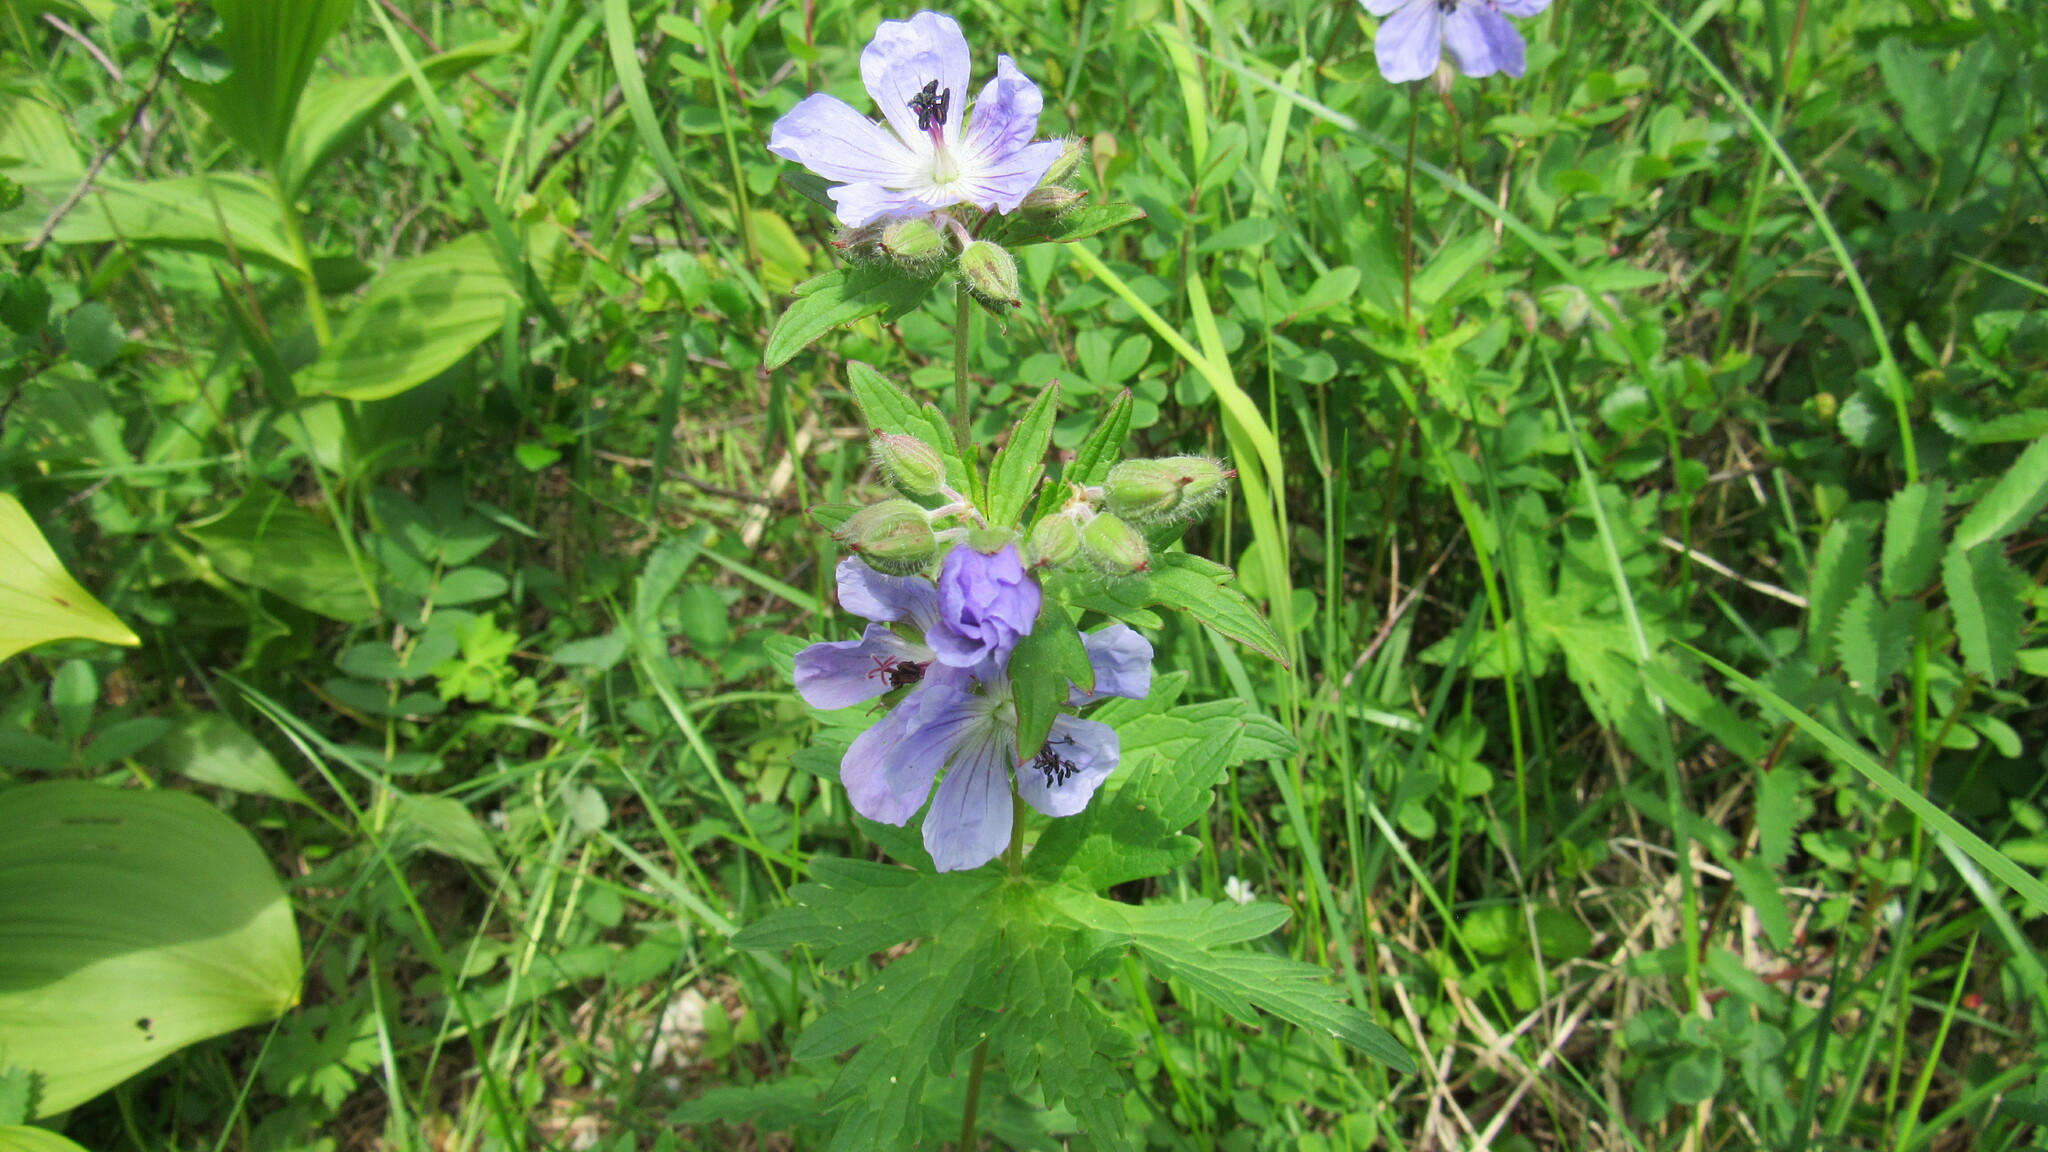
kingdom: Plantae
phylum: Tracheophyta
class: Magnoliopsida
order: Geraniales
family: Geraniaceae
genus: Geranium
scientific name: Geranium erianthum
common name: Northern crane's-bill
